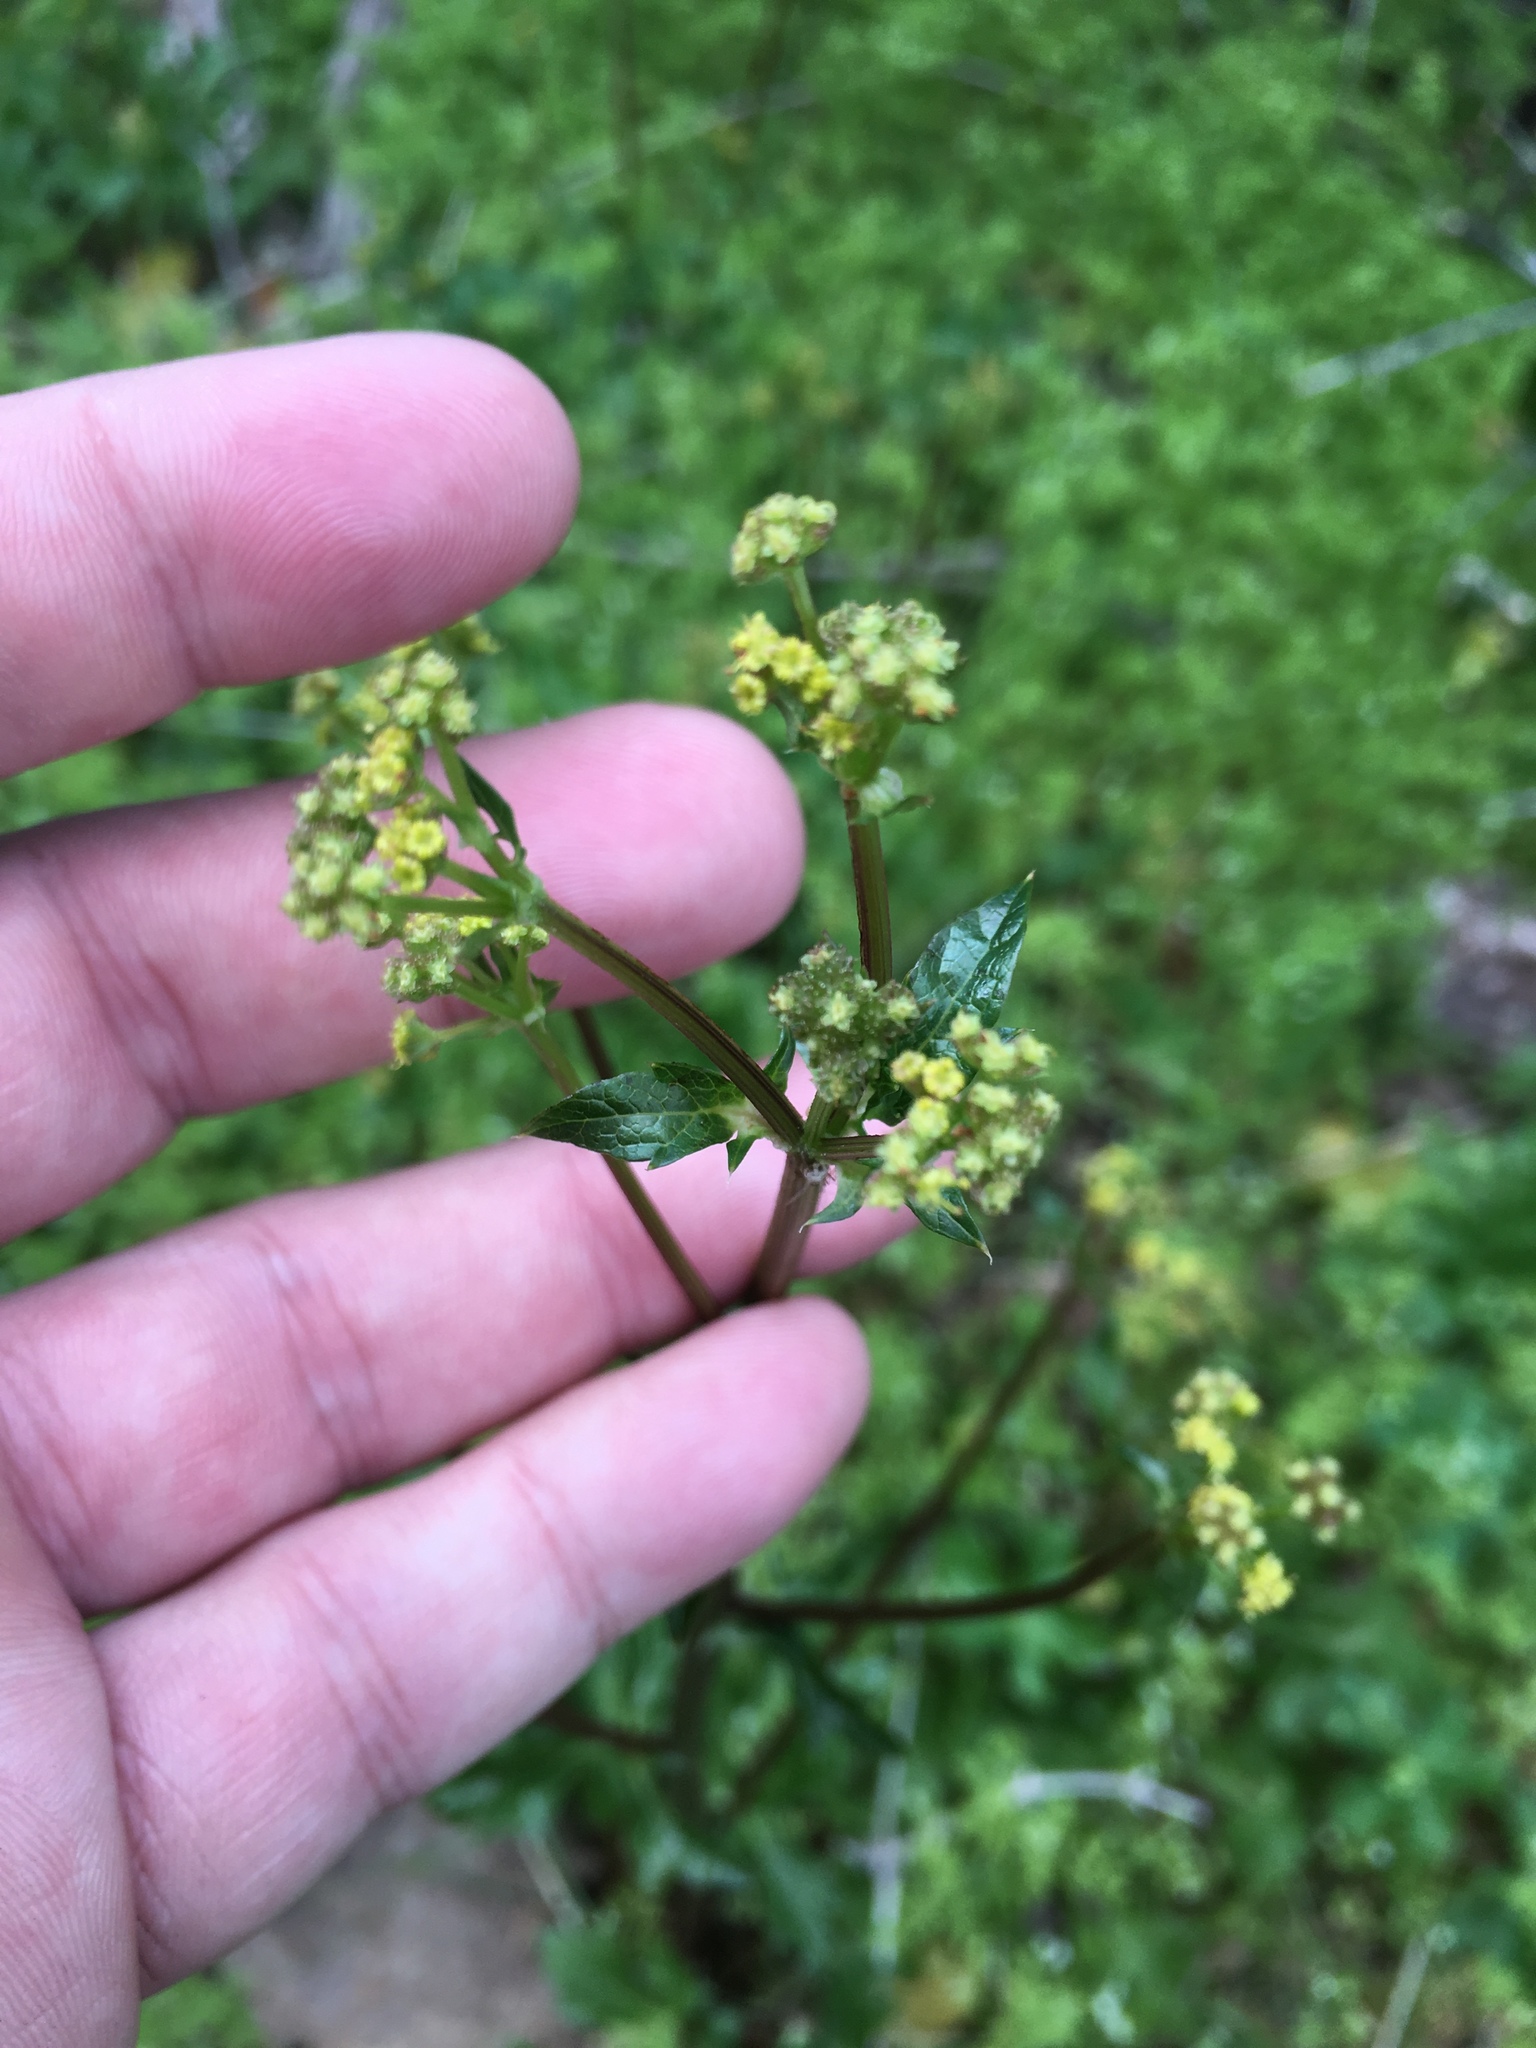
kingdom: Plantae
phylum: Tracheophyta
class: Magnoliopsida
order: Apiales
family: Apiaceae
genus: Sanicula
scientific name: Sanicula bipinnata
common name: Poison sanicle
